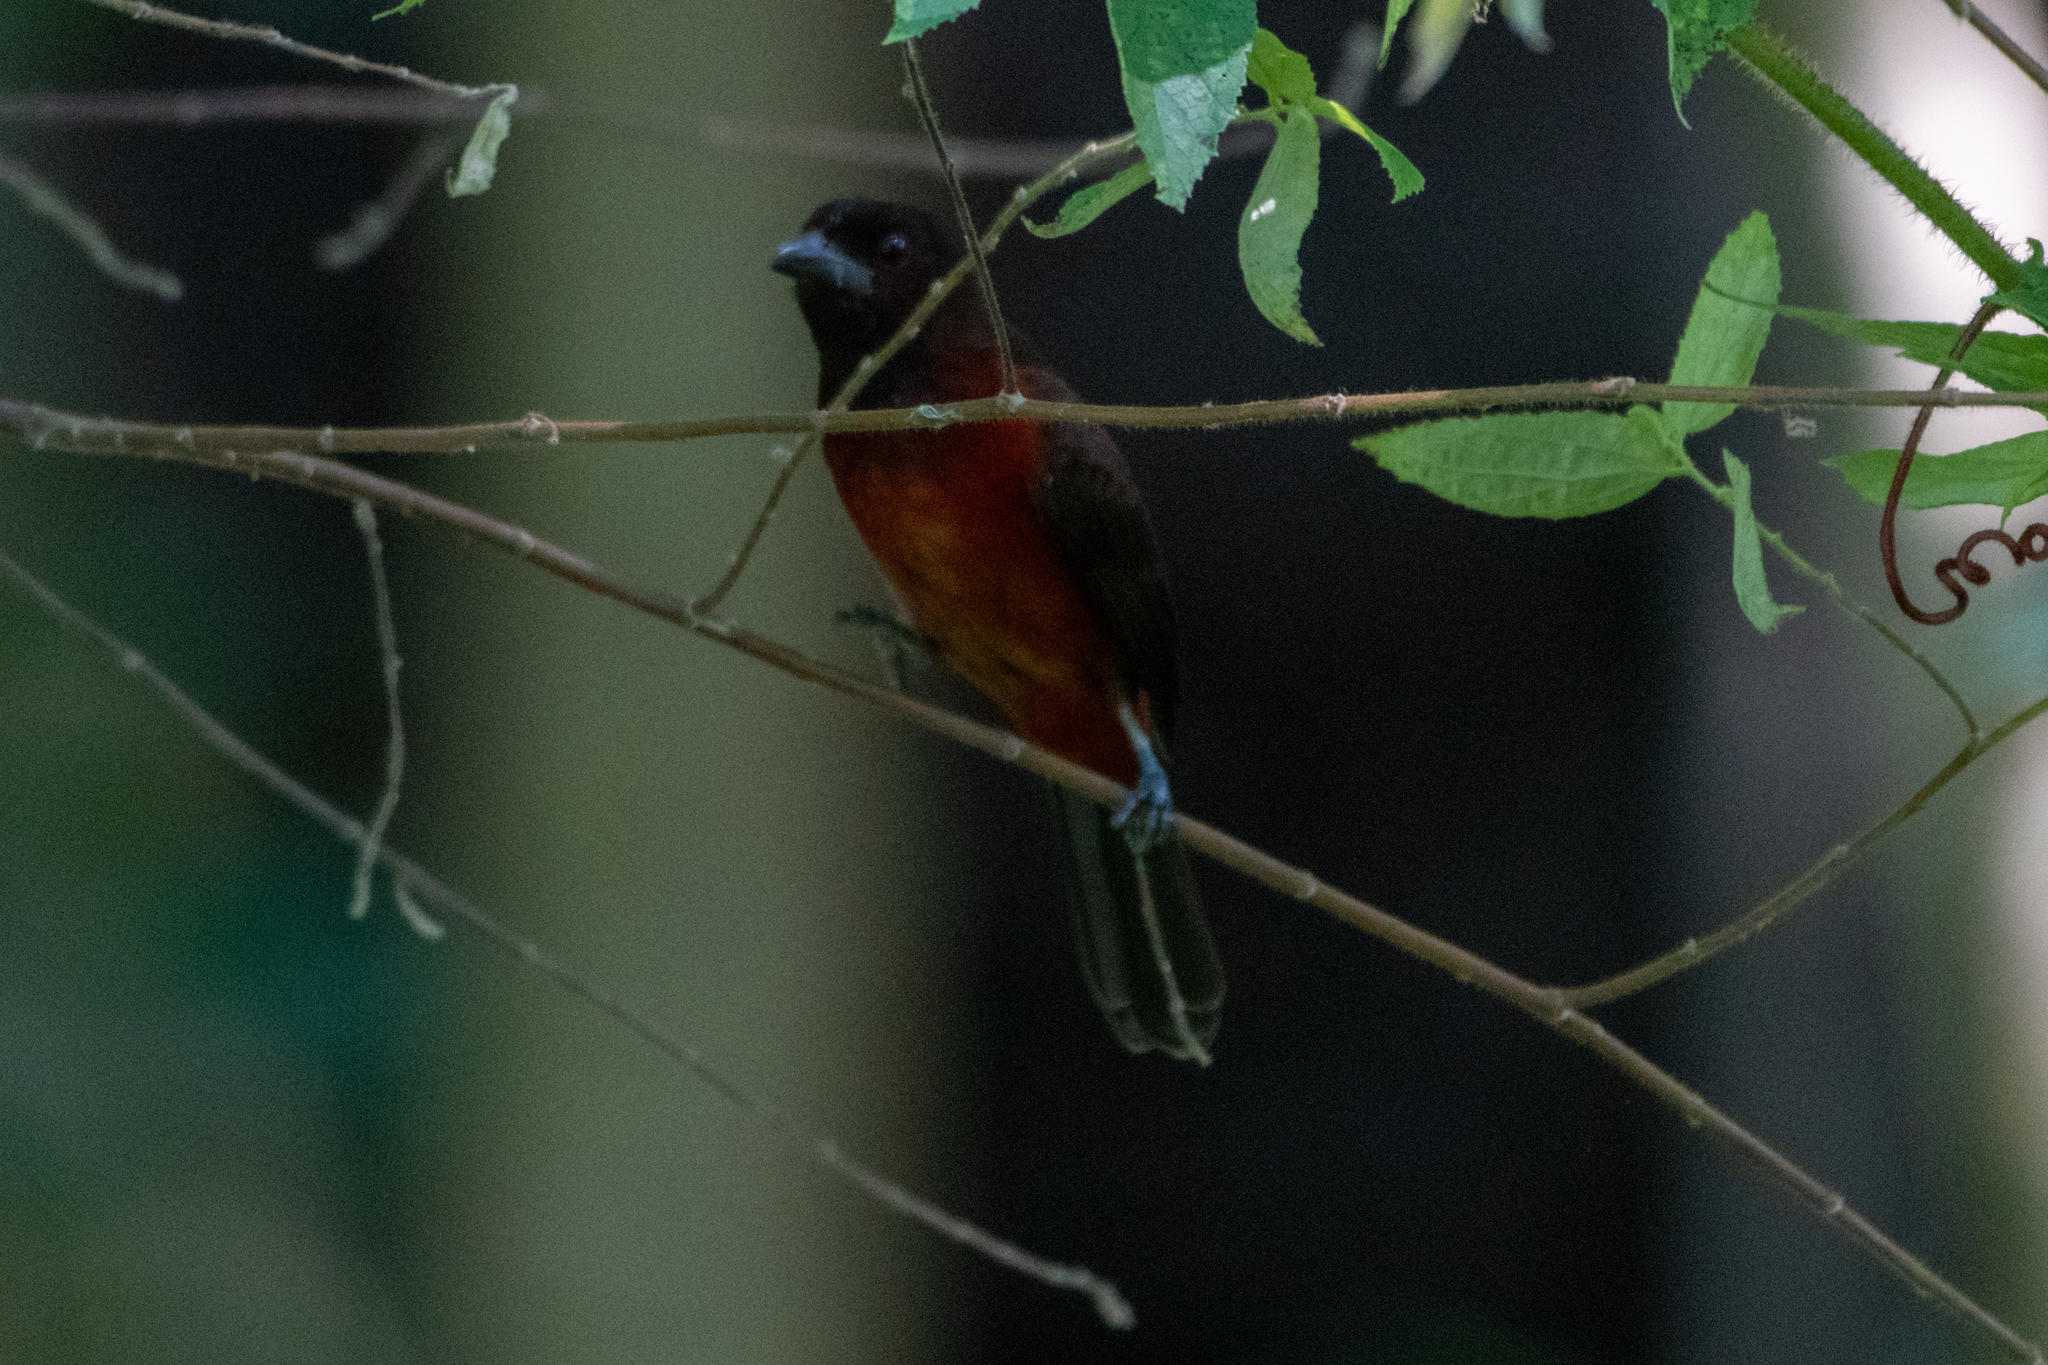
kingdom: Animalia
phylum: Chordata
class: Aves
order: Passeriformes
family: Thraupidae
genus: Ramphocelus
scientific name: Ramphocelus dimidiatus
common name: Crimson-backed tanager
